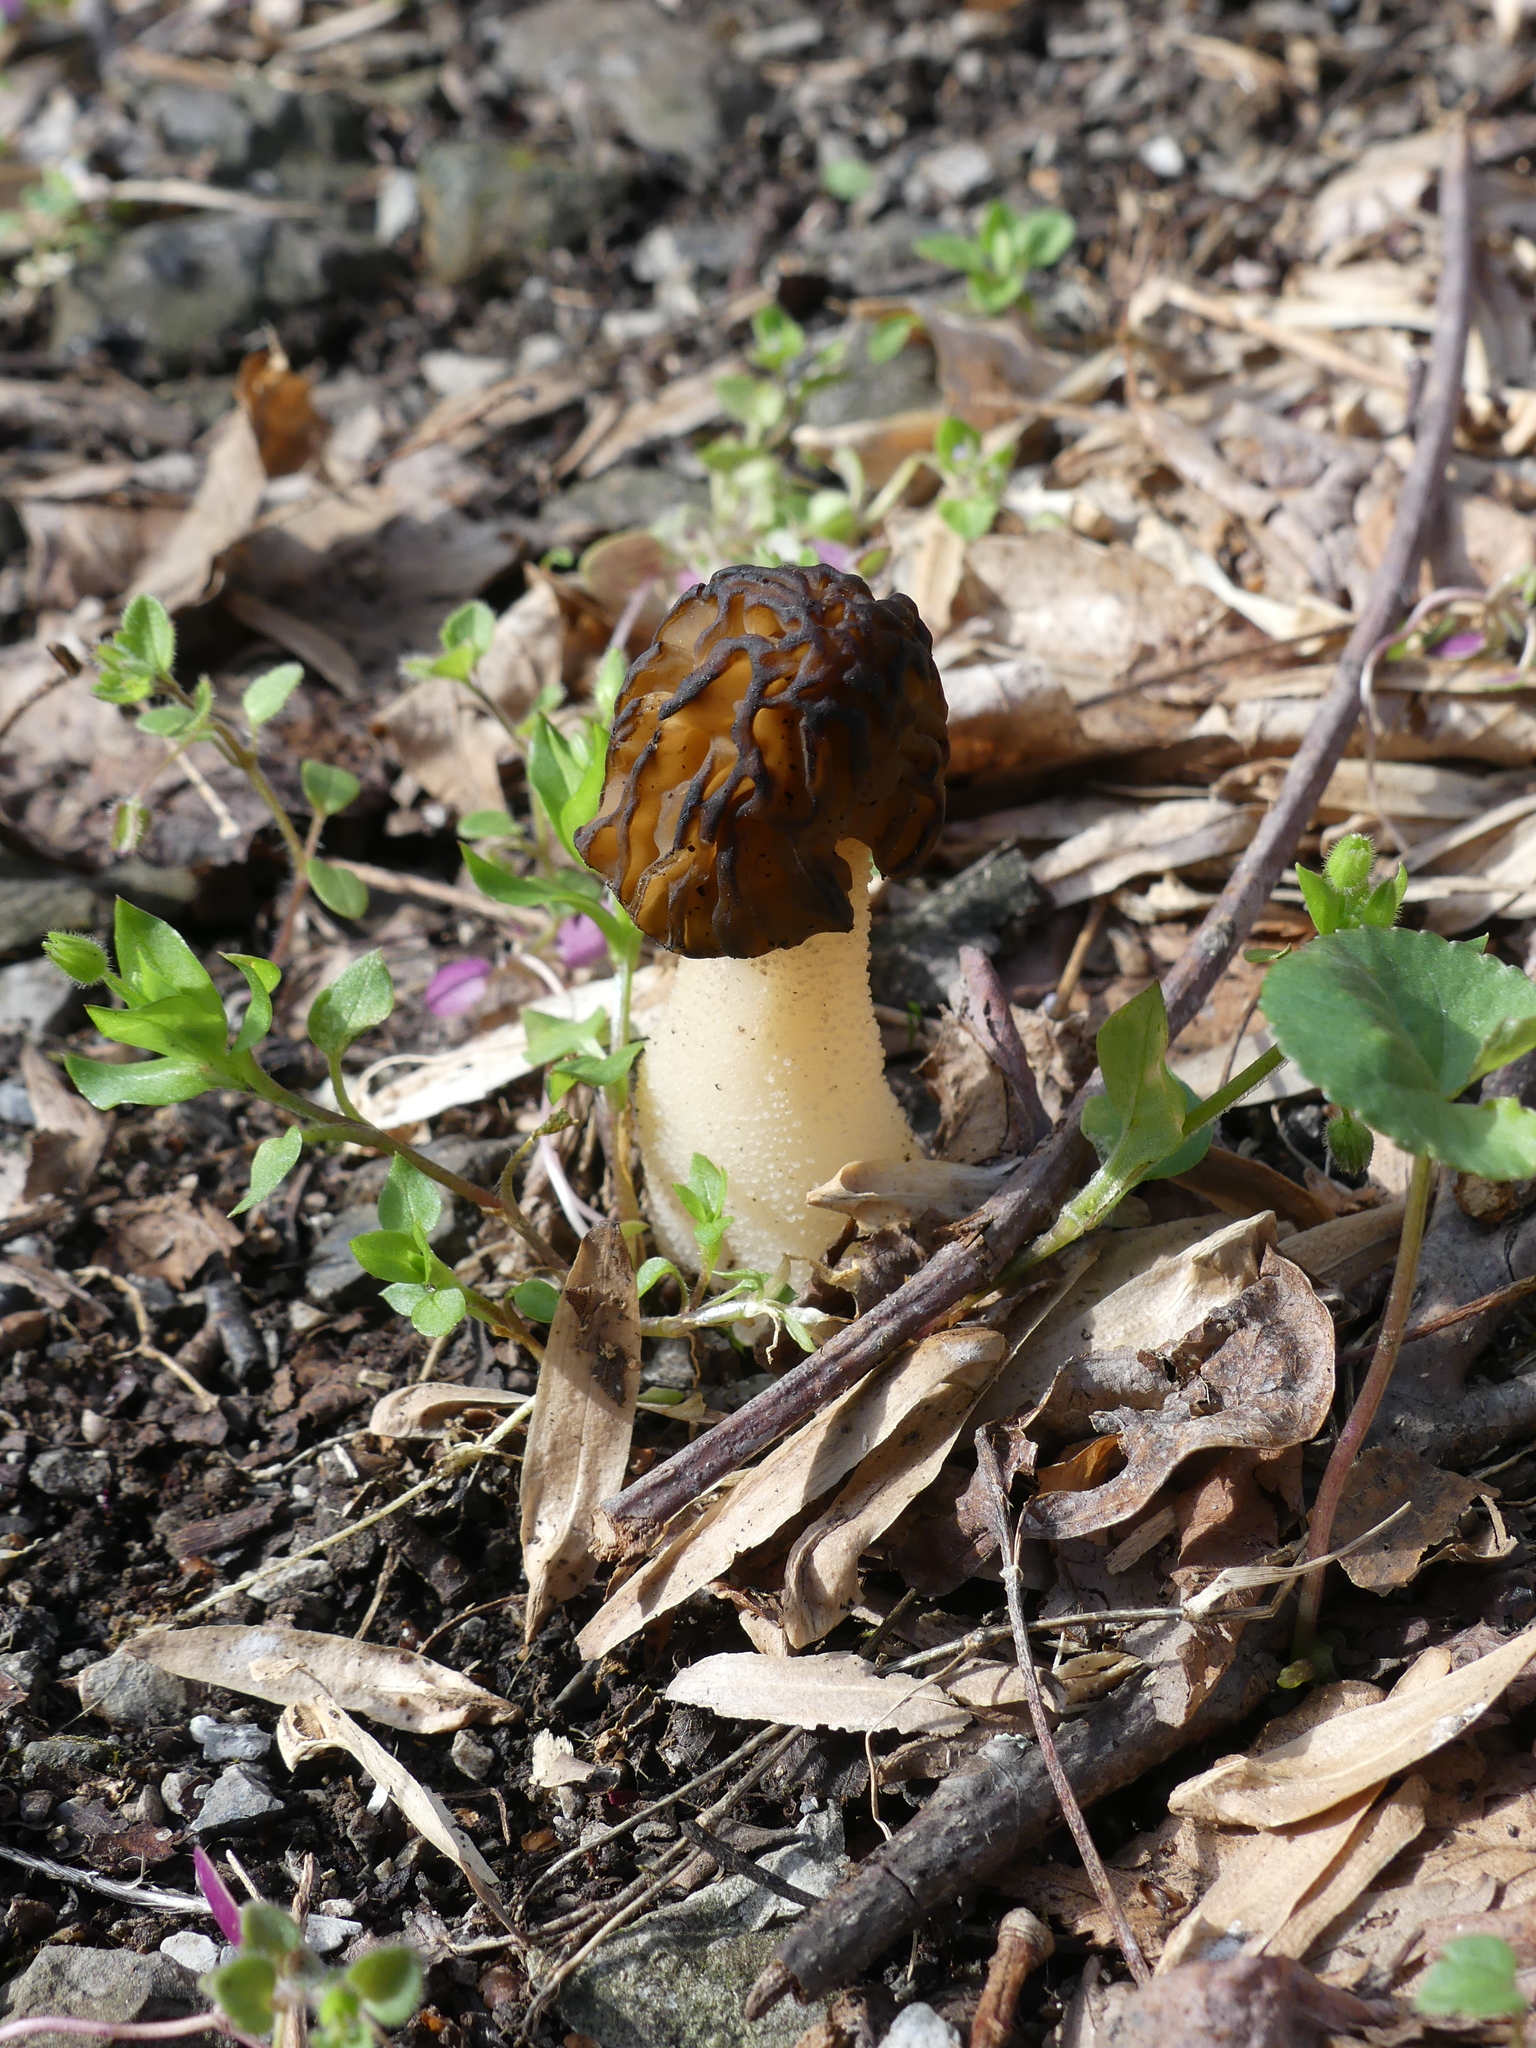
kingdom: Fungi
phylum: Ascomycota
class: Pezizomycetes
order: Pezizales
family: Morchellaceae
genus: Morchella
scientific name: Morchella punctipes
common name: Half-free morel
